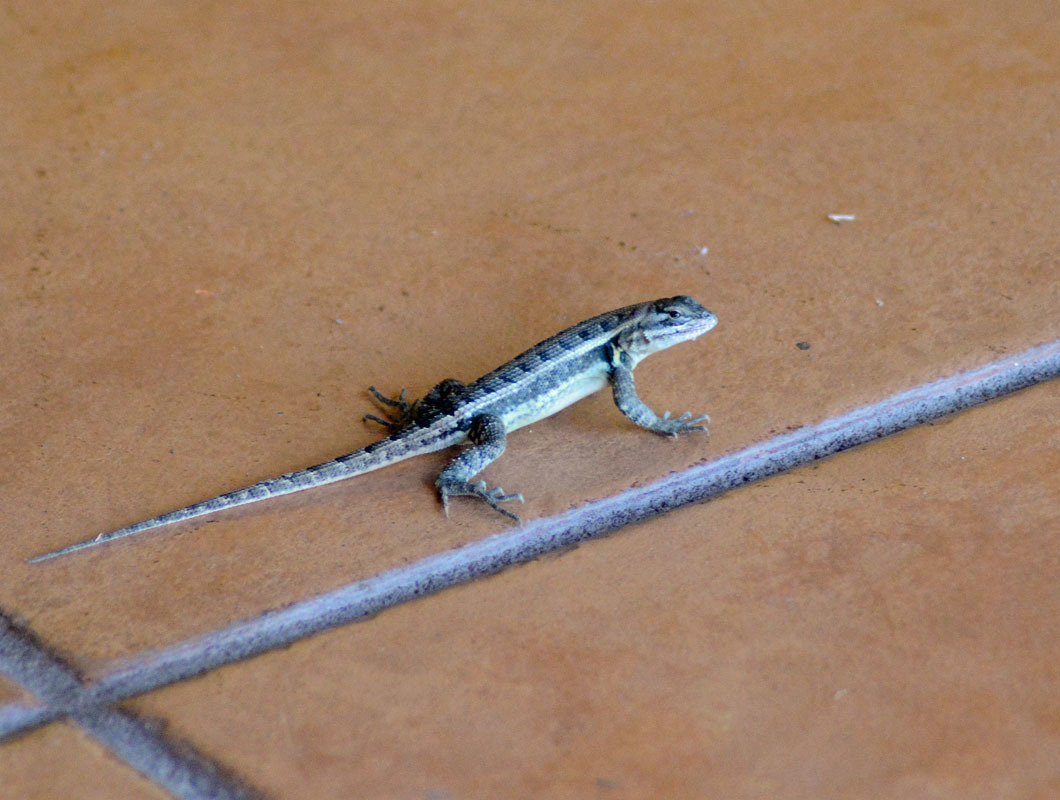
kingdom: Animalia
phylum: Chordata
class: Squamata
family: Phrynosomatidae
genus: Sceloporus
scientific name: Sceloporus variabilis
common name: Rosebelly lizard
